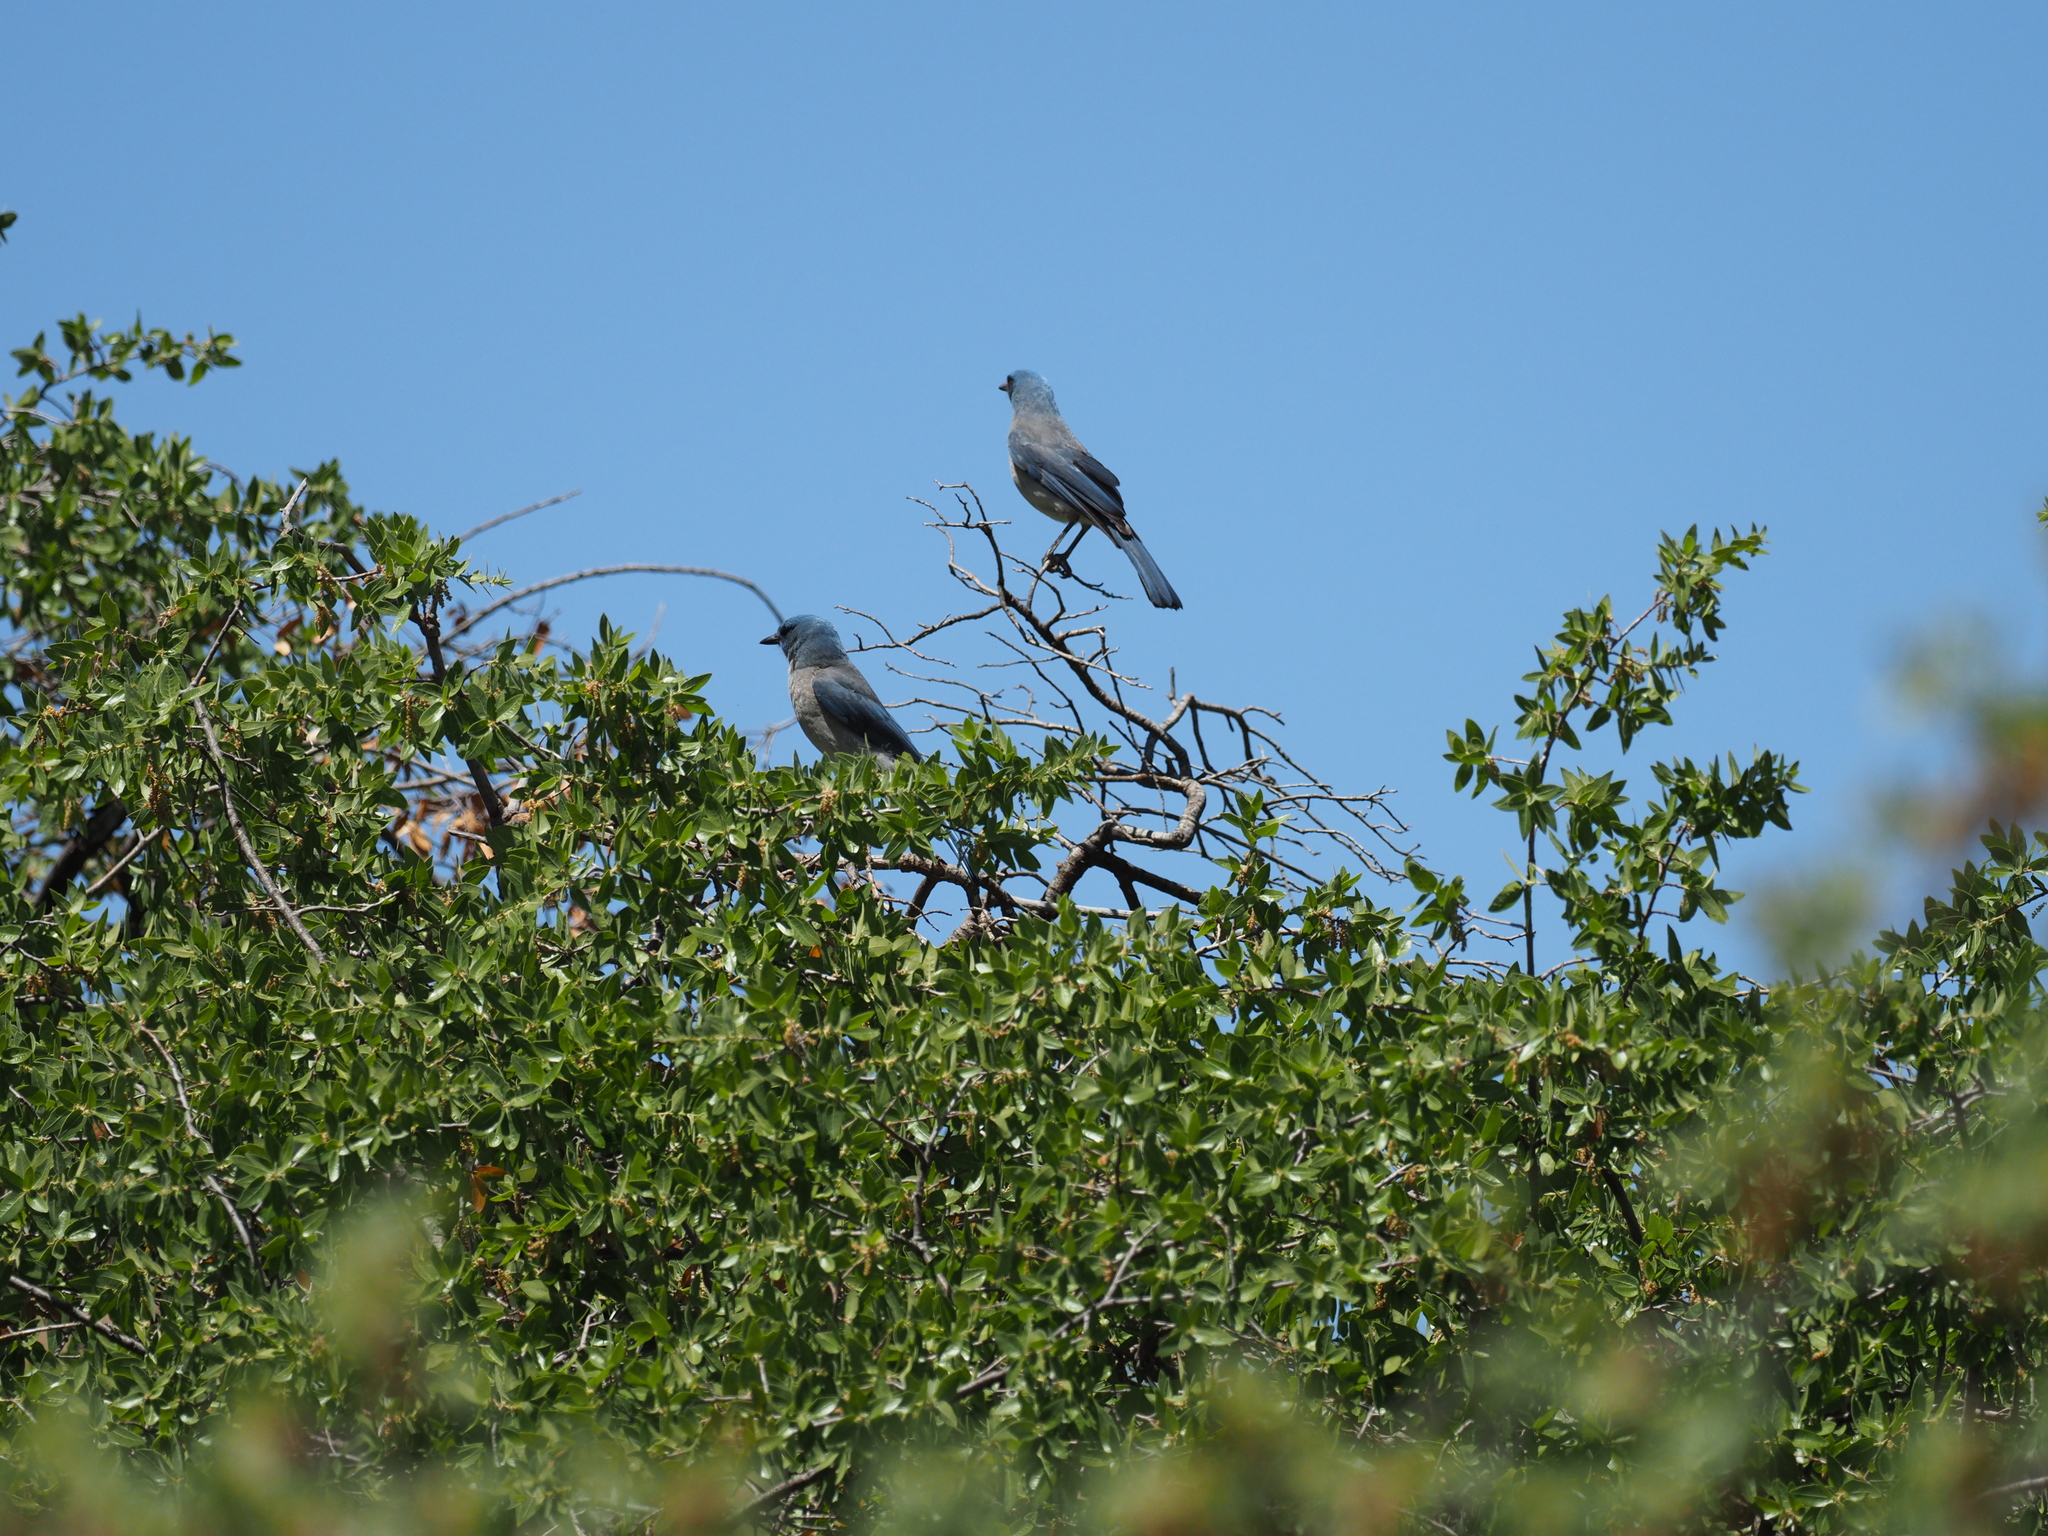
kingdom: Animalia
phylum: Chordata
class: Aves
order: Passeriformes
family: Corvidae
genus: Aphelocoma
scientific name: Aphelocoma wollweberi
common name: Mexican jay
